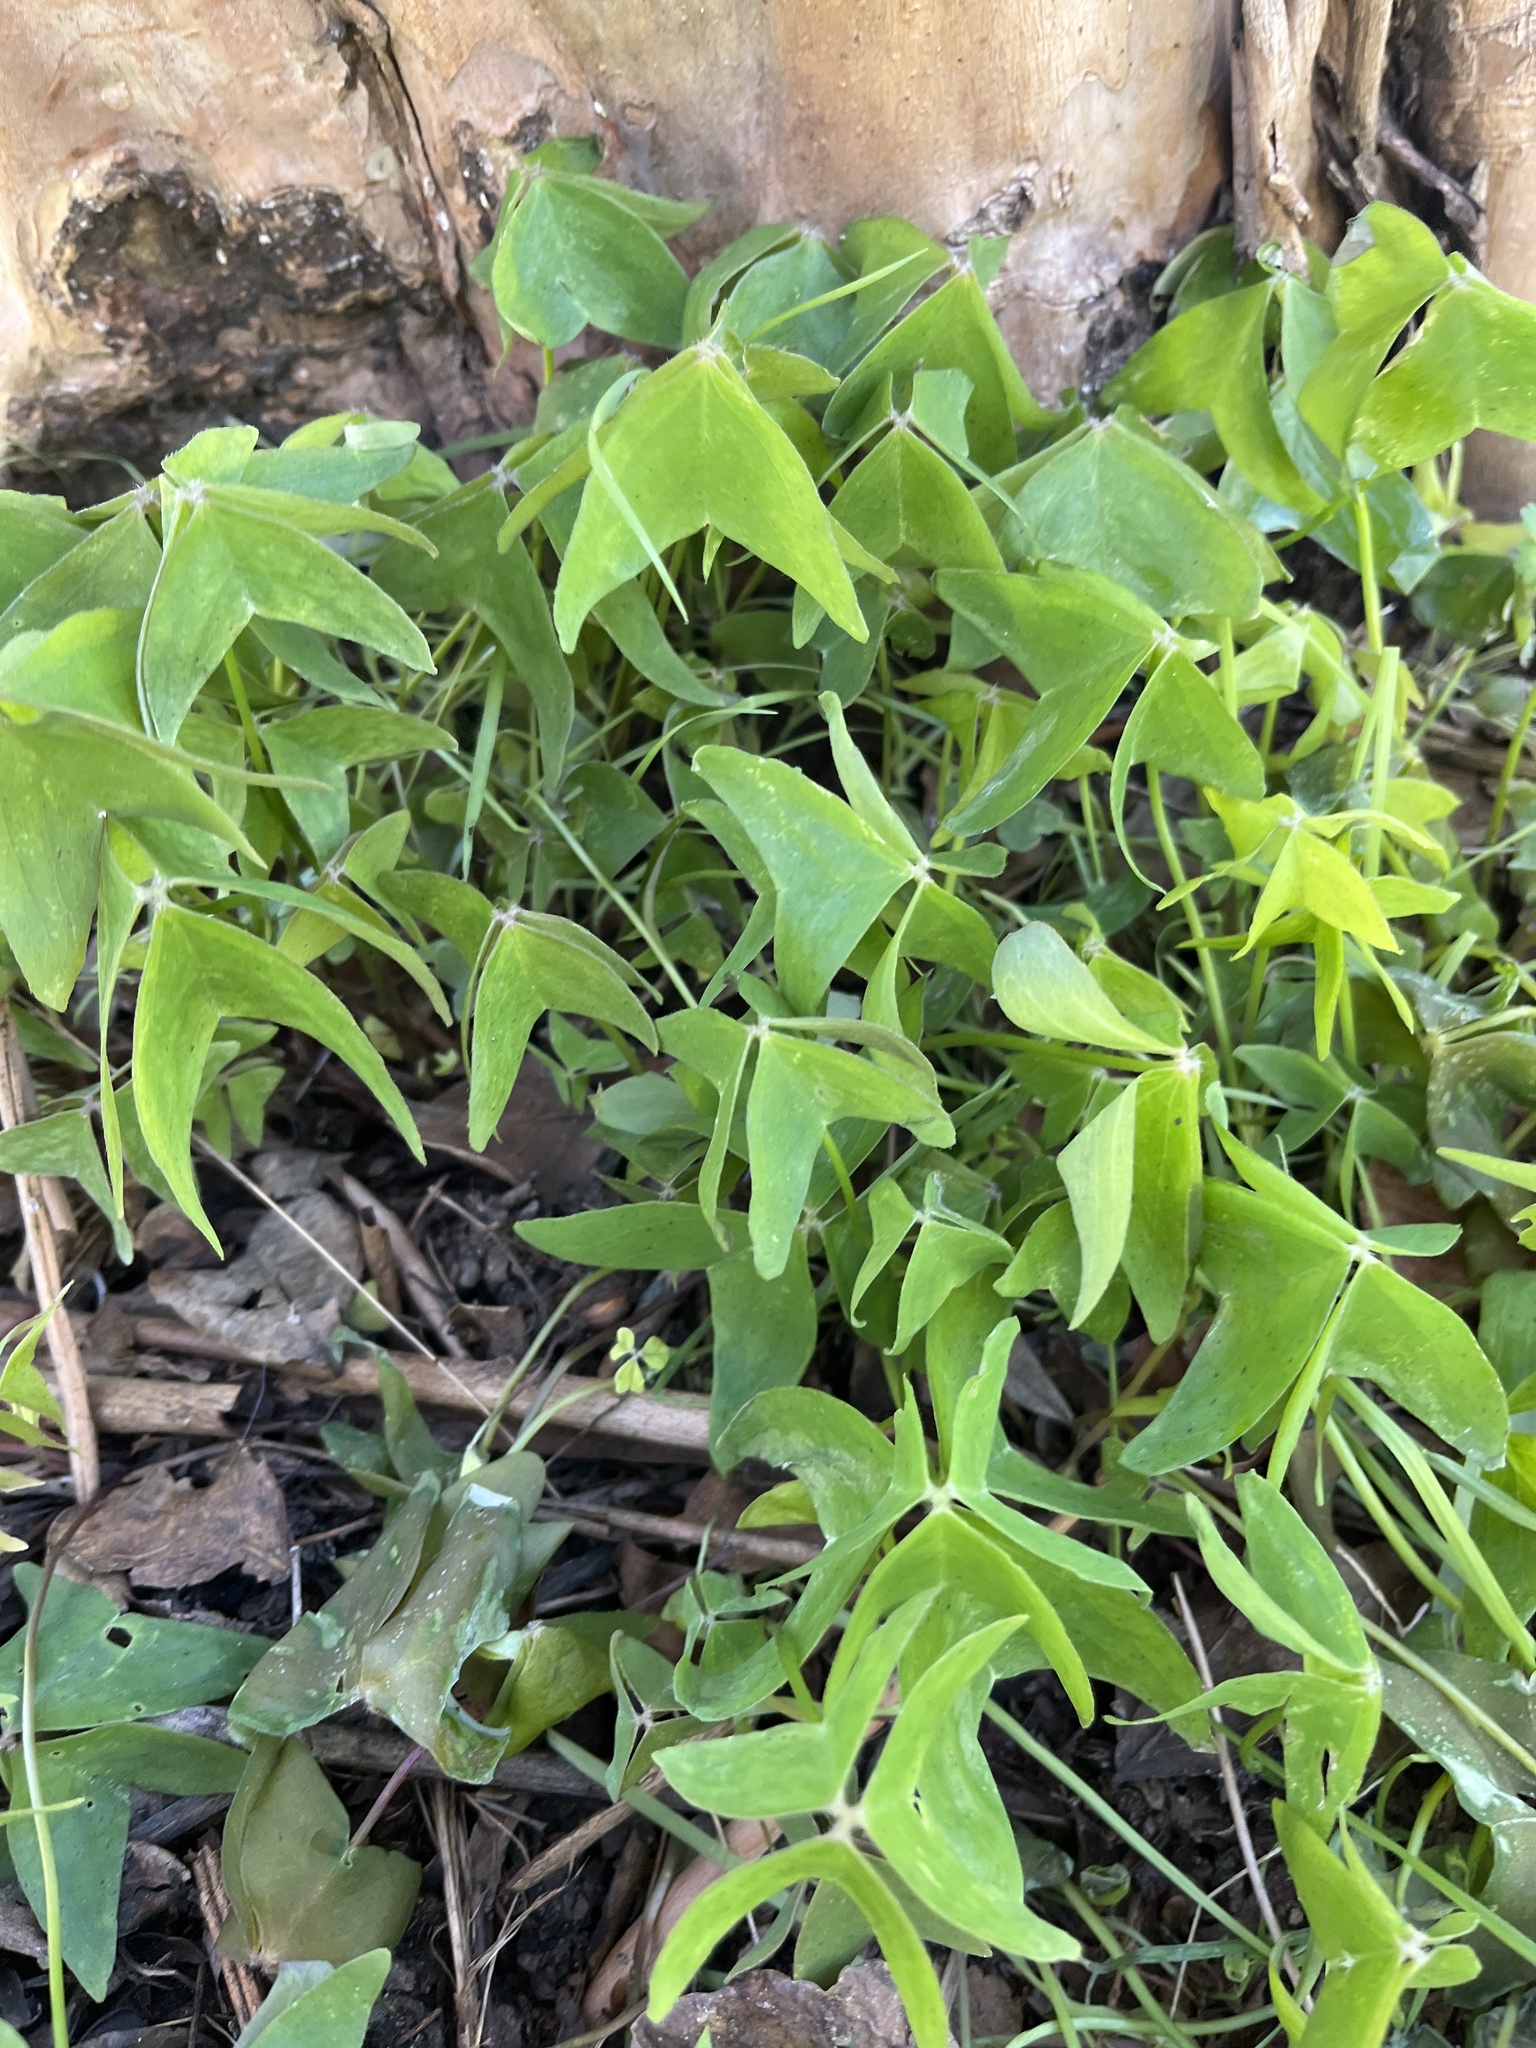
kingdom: Plantae
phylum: Tracheophyta
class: Magnoliopsida
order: Oxalidales
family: Oxalidaceae
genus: Oxalis
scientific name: Oxalis intermedia
